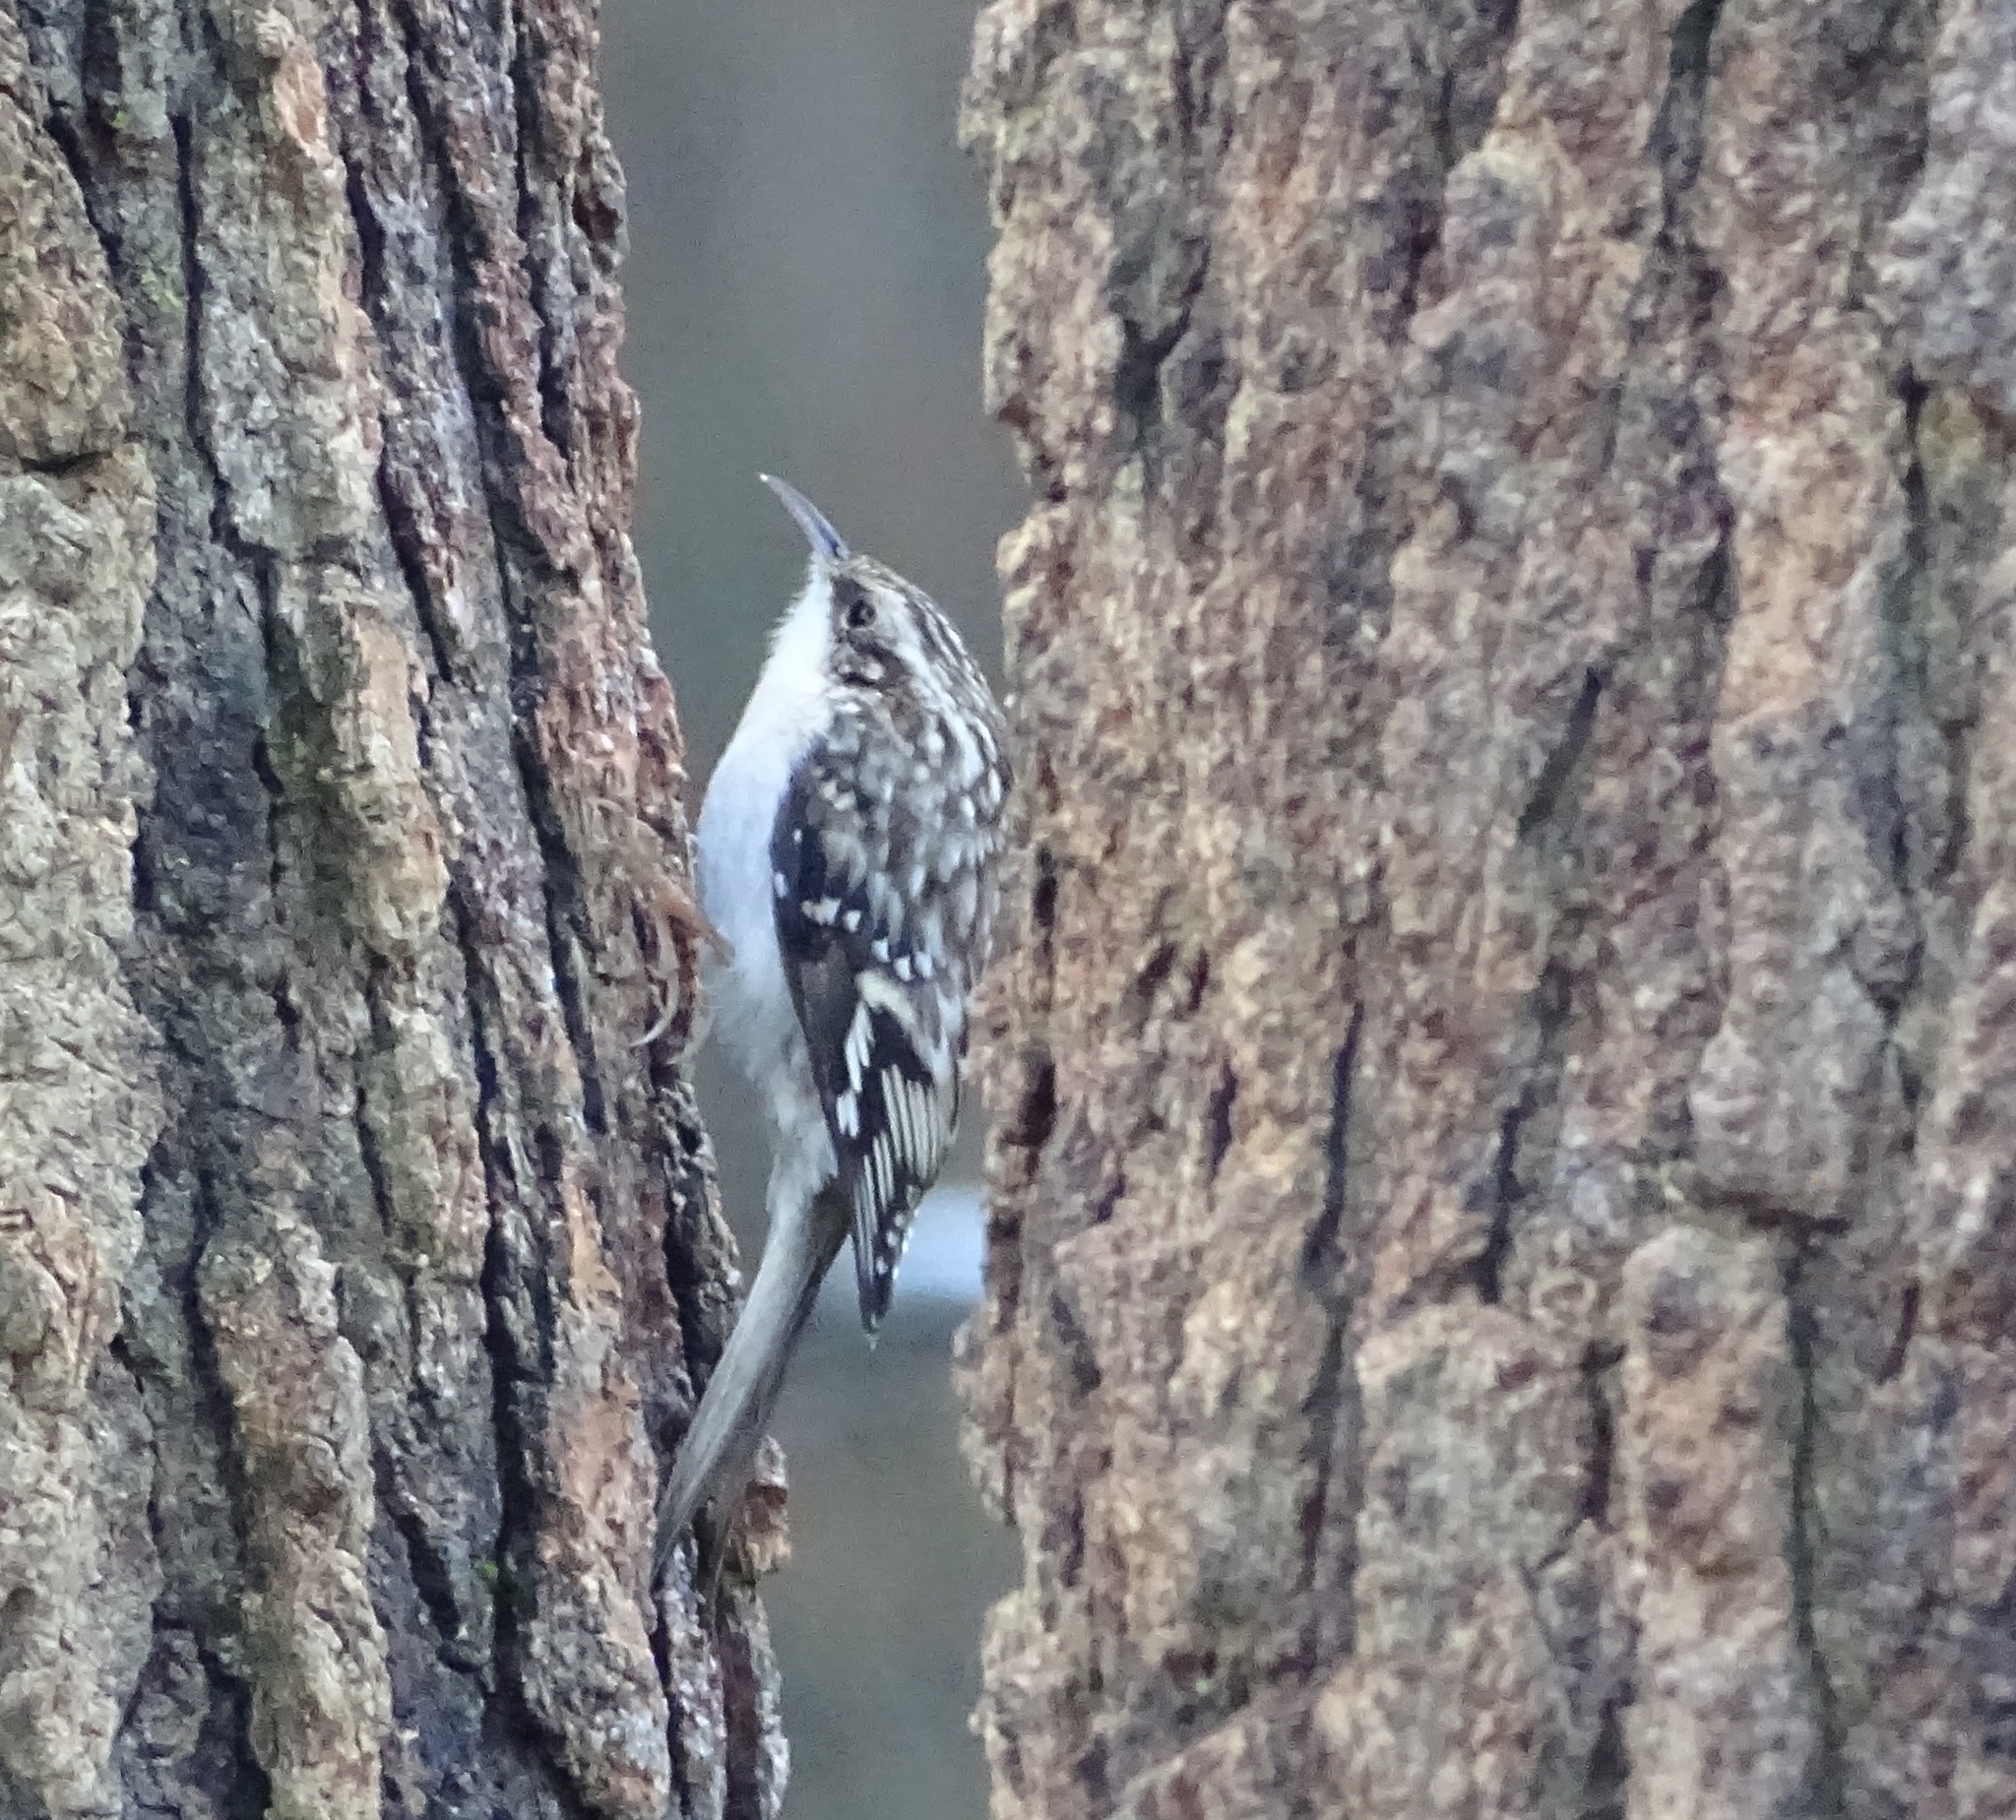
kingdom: Animalia
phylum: Chordata
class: Aves
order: Passeriformes
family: Certhiidae
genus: Certhia
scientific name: Certhia americana
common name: Brown creeper
